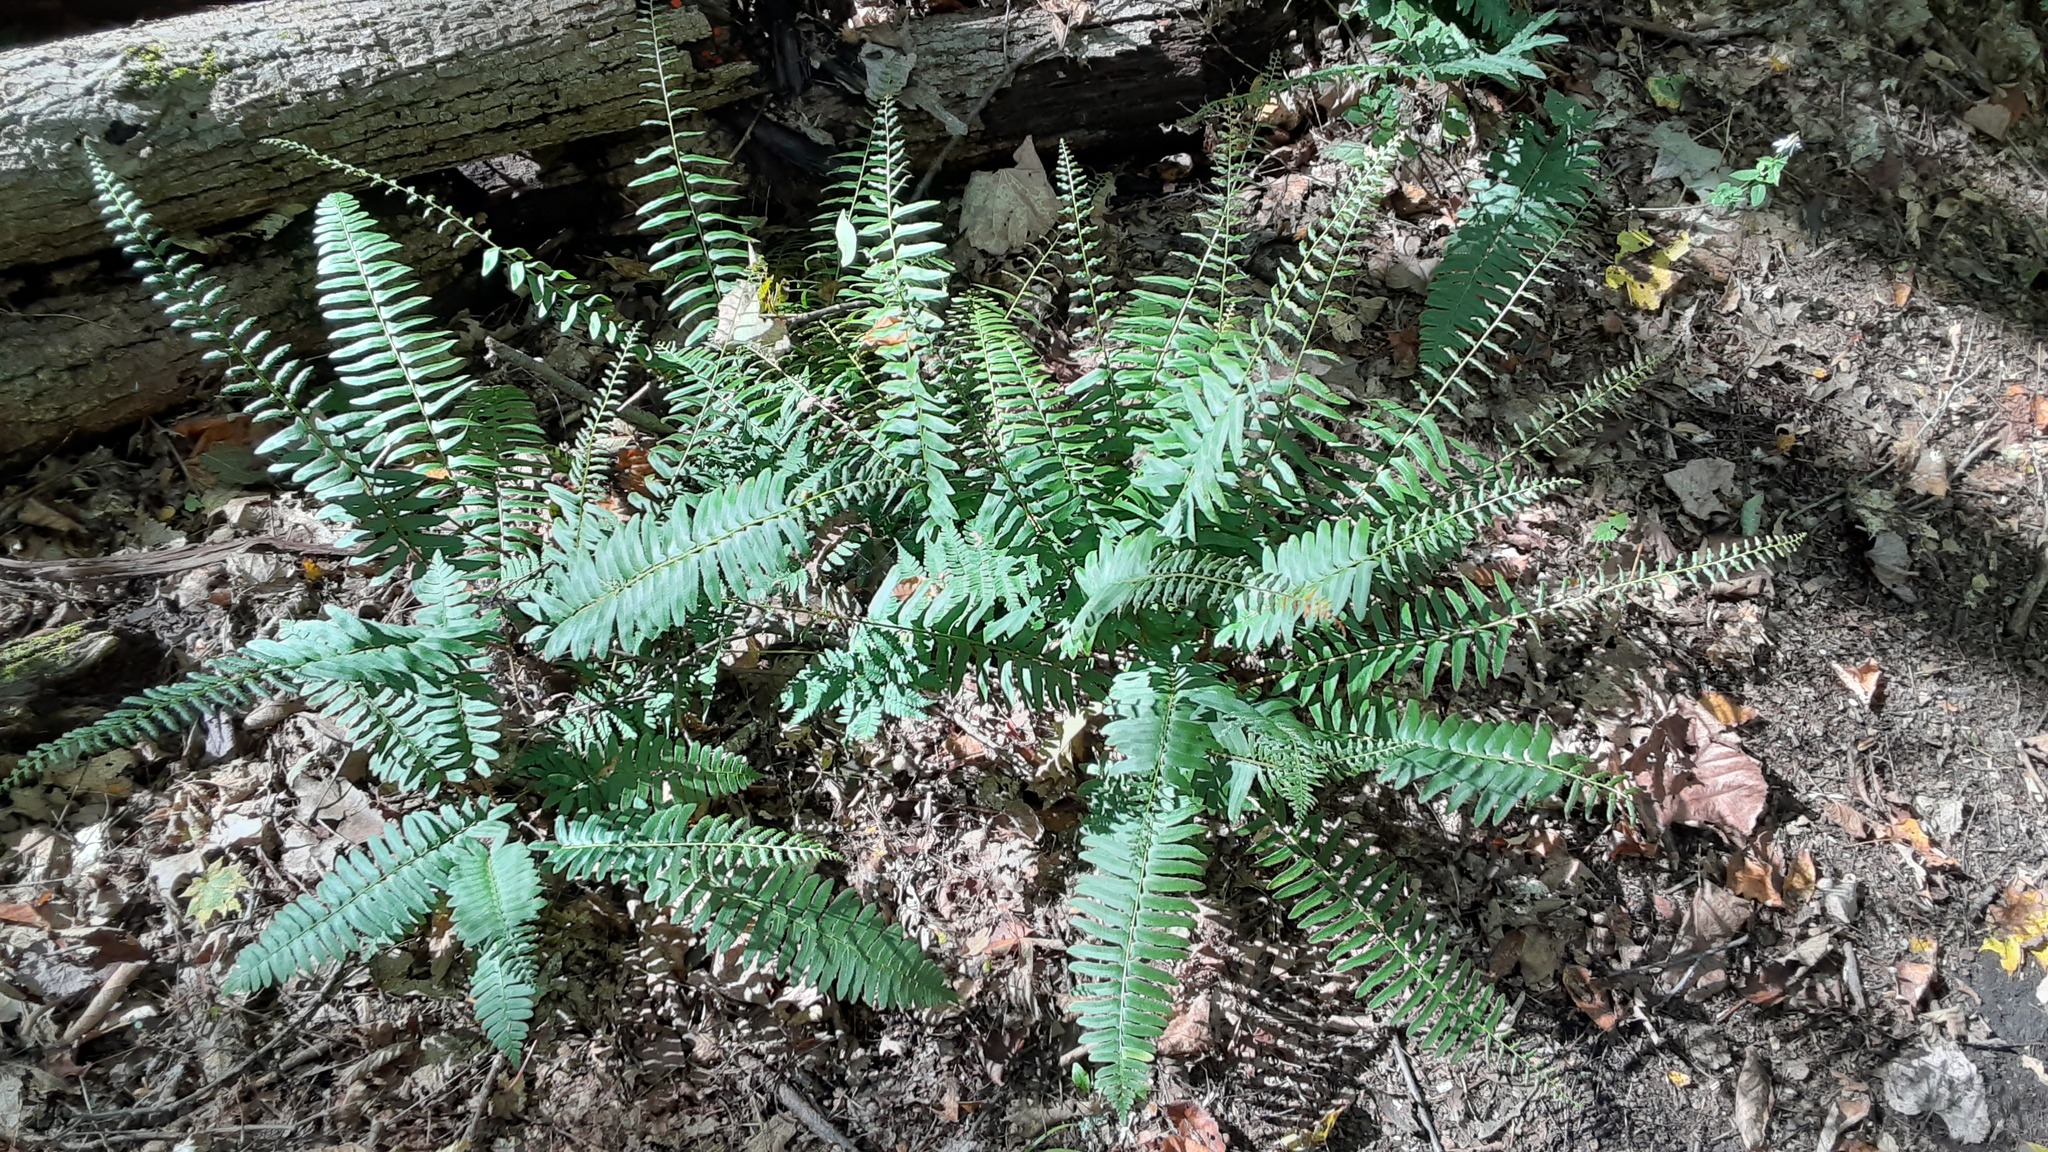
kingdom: Plantae
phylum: Tracheophyta
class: Polypodiopsida
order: Polypodiales
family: Dryopteridaceae
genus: Polystichum
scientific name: Polystichum acrostichoides
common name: Christmas fern
